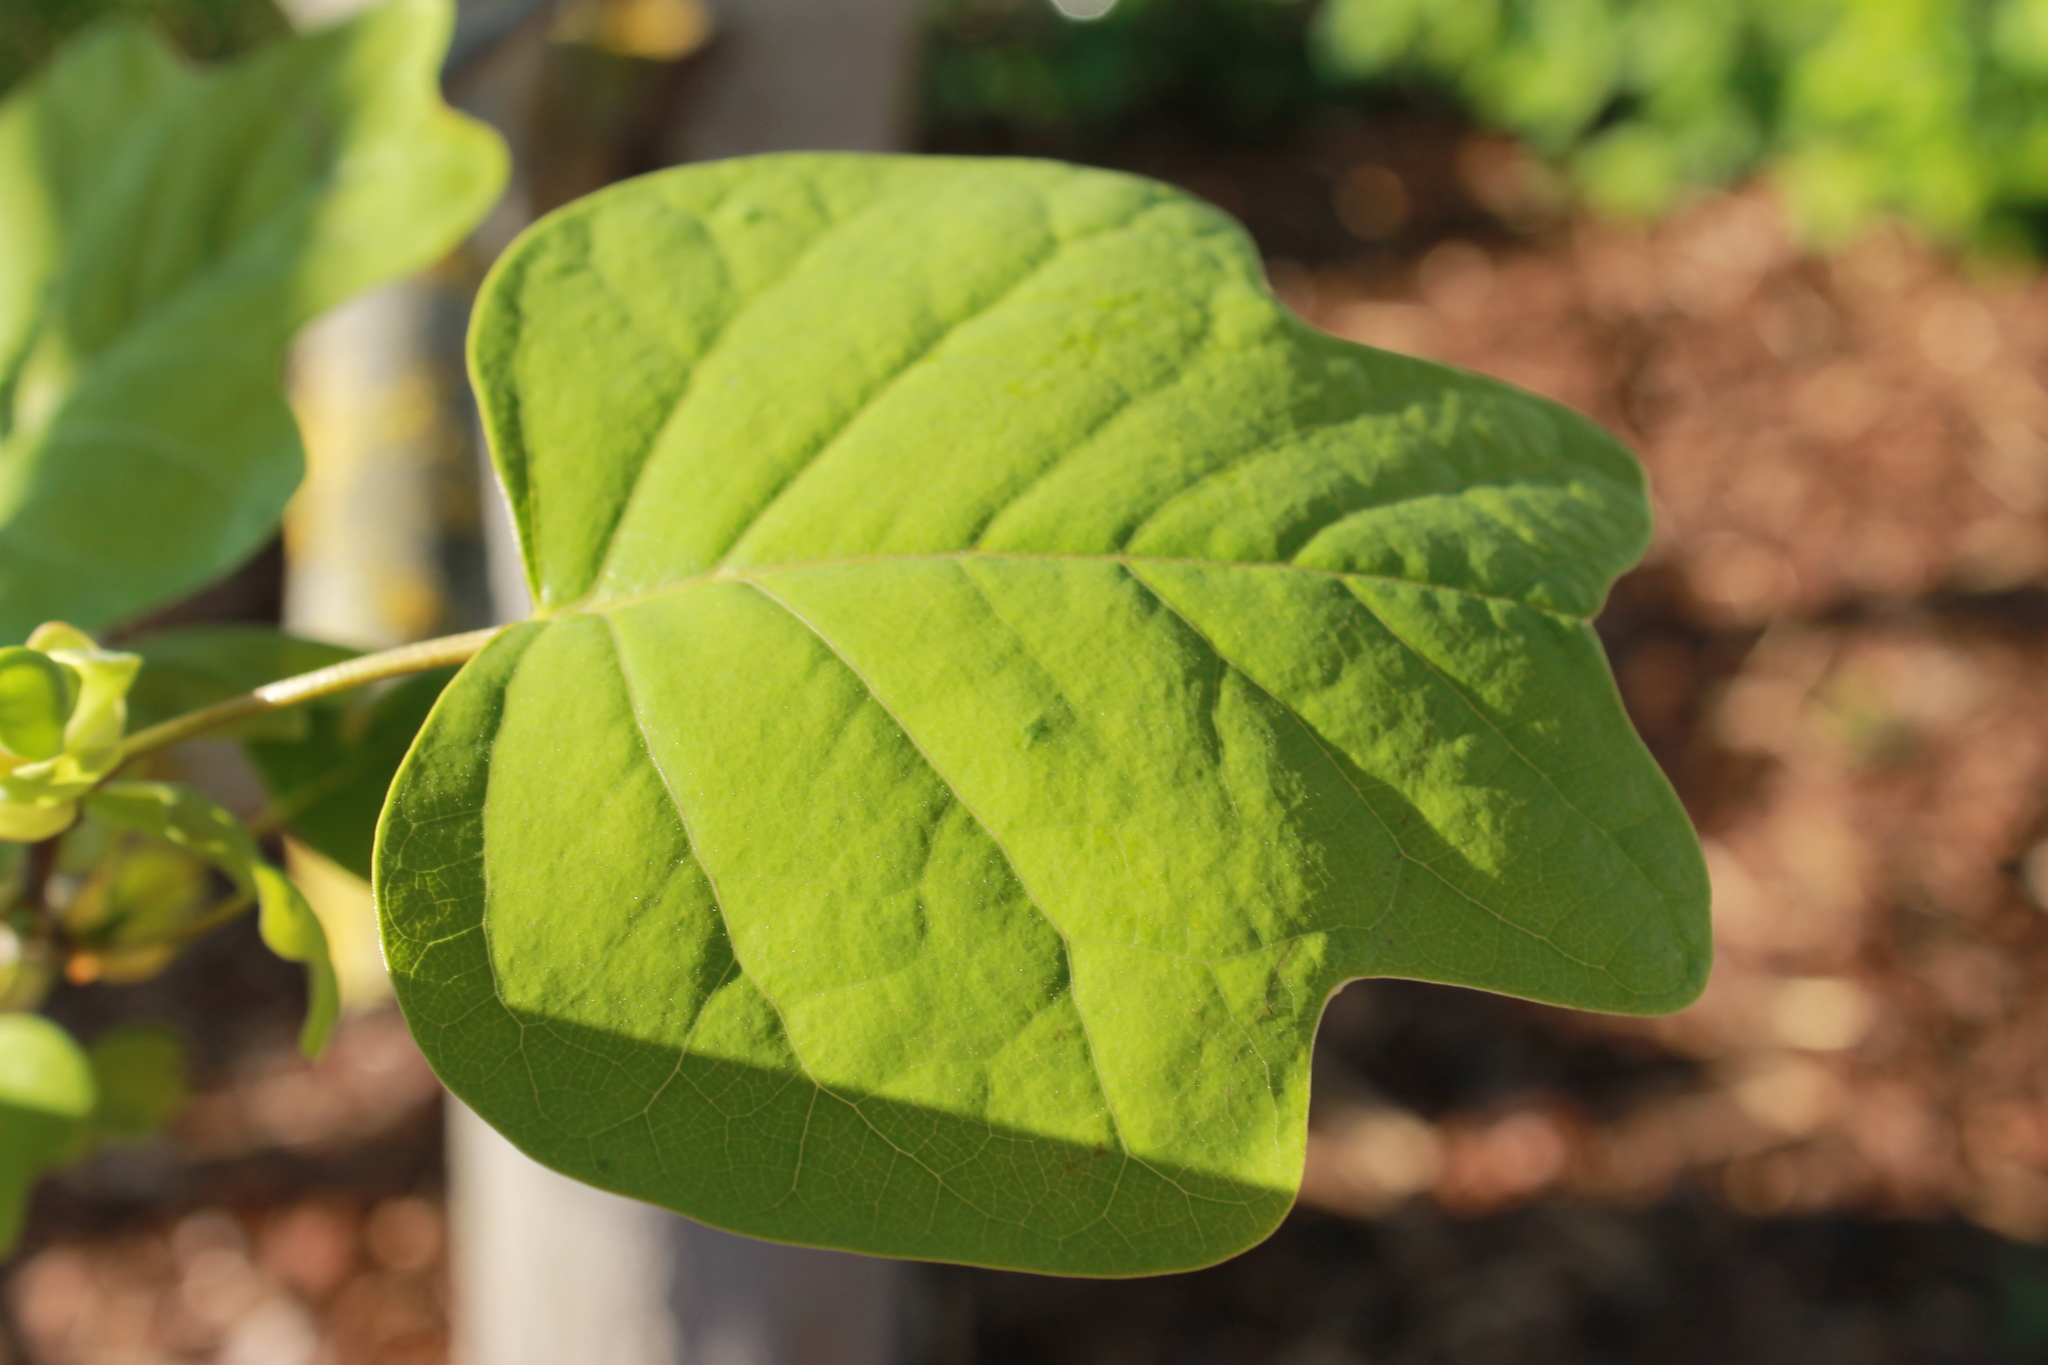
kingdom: Plantae
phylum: Tracheophyta
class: Magnoliopsida
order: Magnoliales
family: Magnoliaceae
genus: Liriodendron
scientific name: Liriodendron tulipifera
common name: Tulip tree
